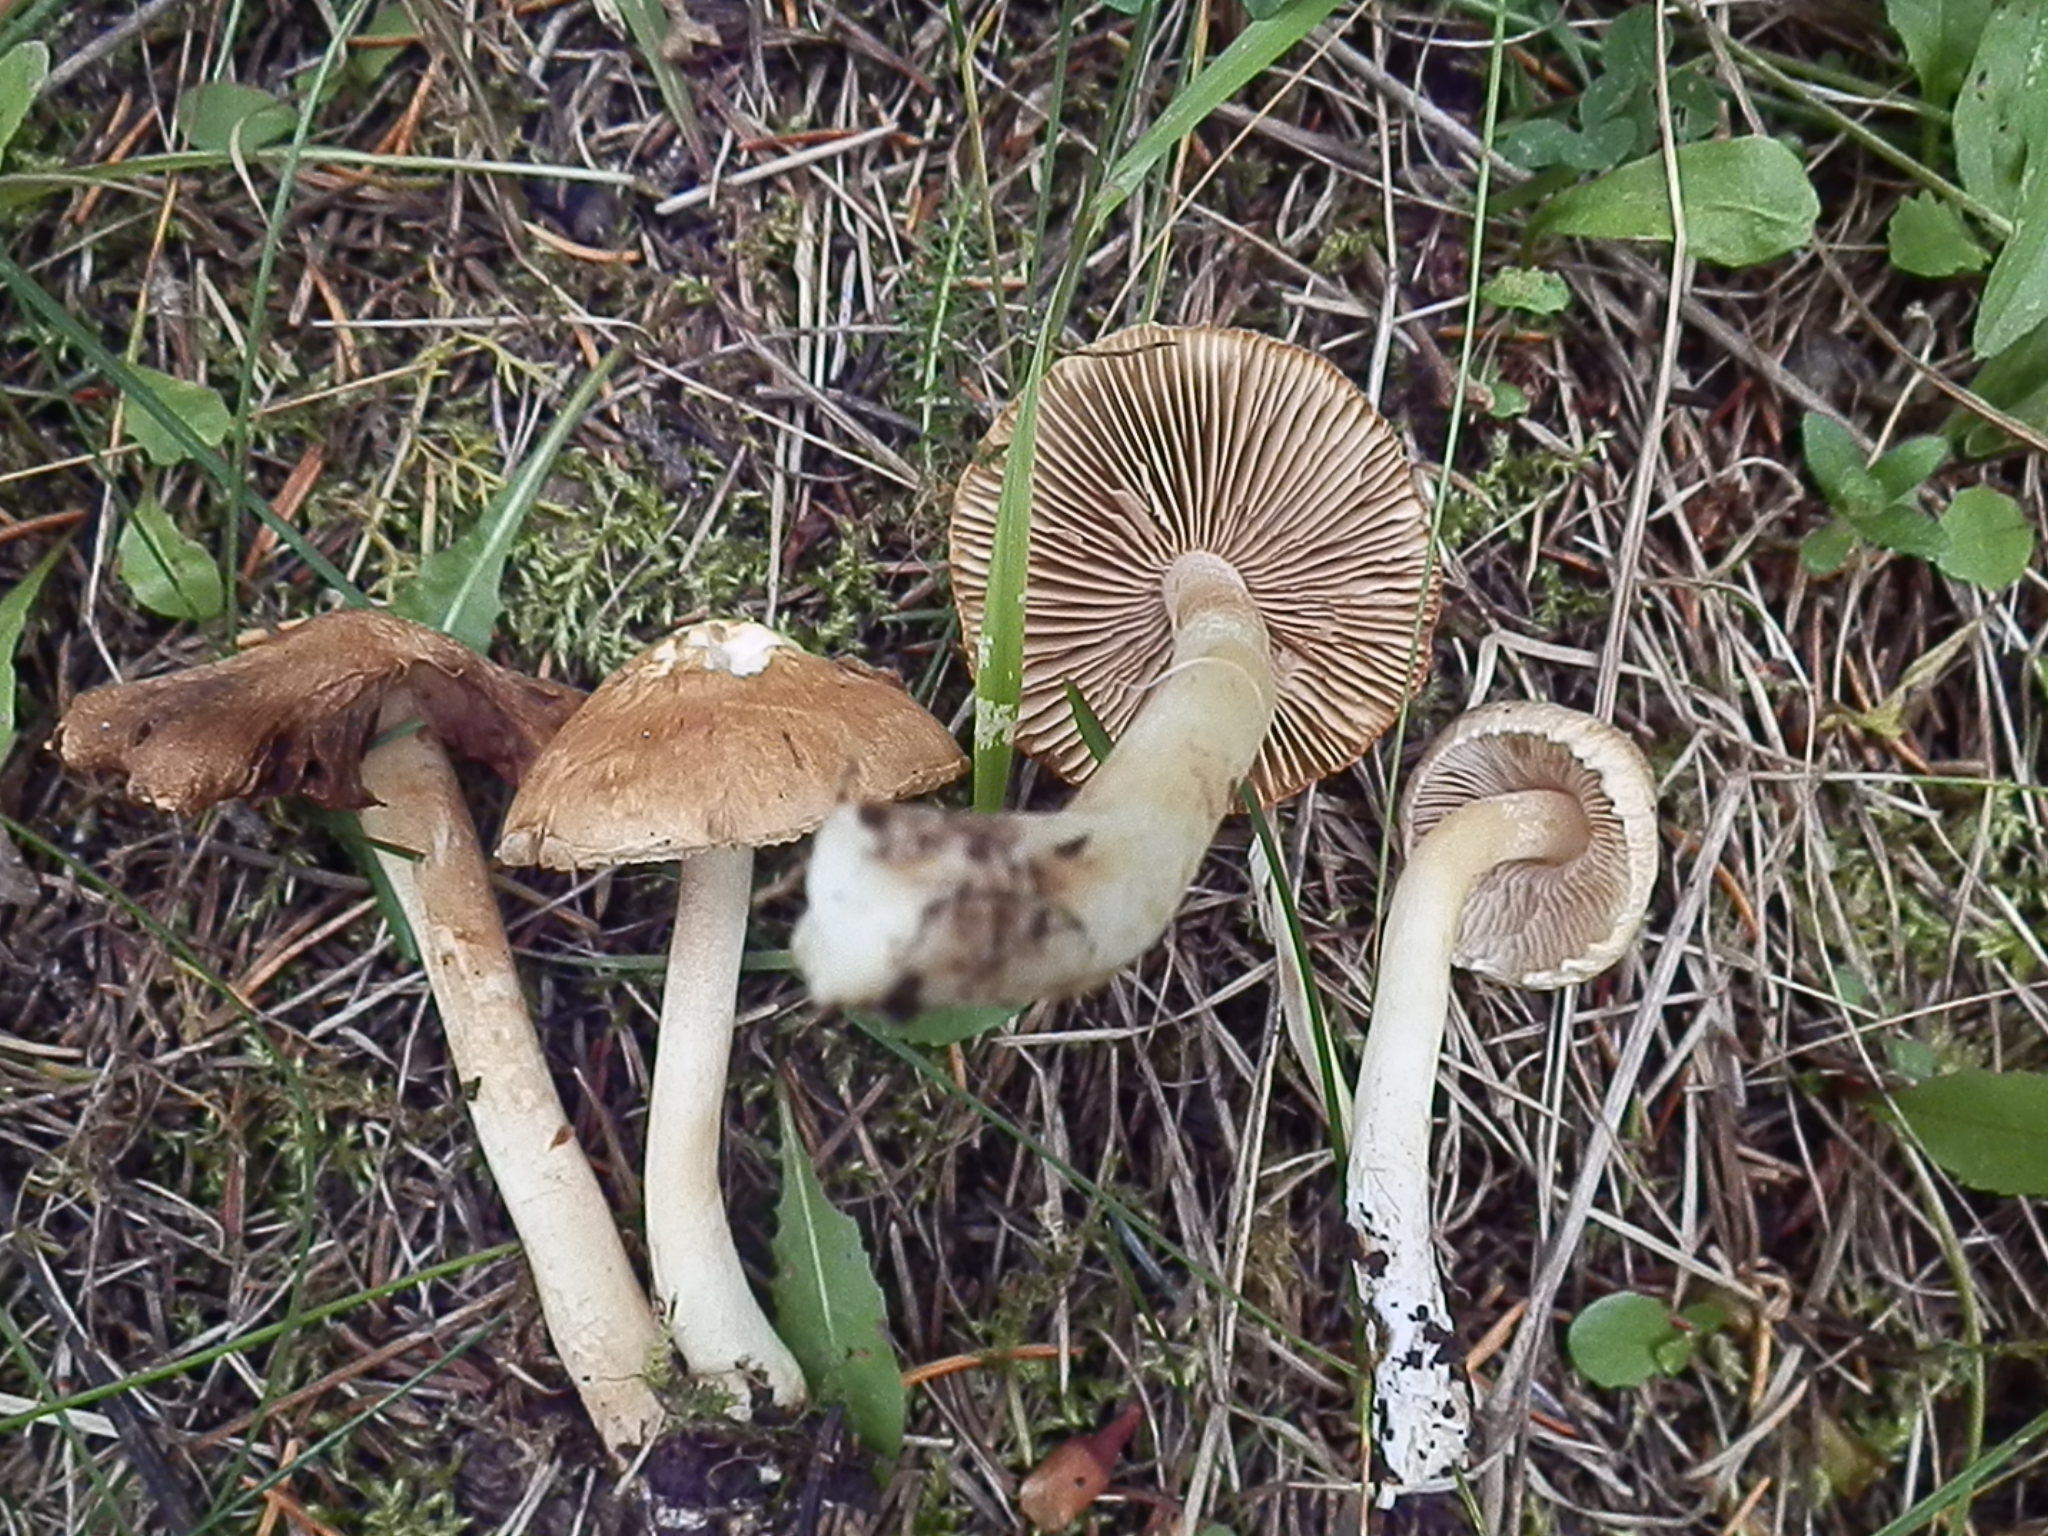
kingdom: Fungi
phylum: Basidiomycota
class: Agaricomycetes
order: Agaricales
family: Inocybaceae
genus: Pseudosperma
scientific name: Pseudosperma sororium
